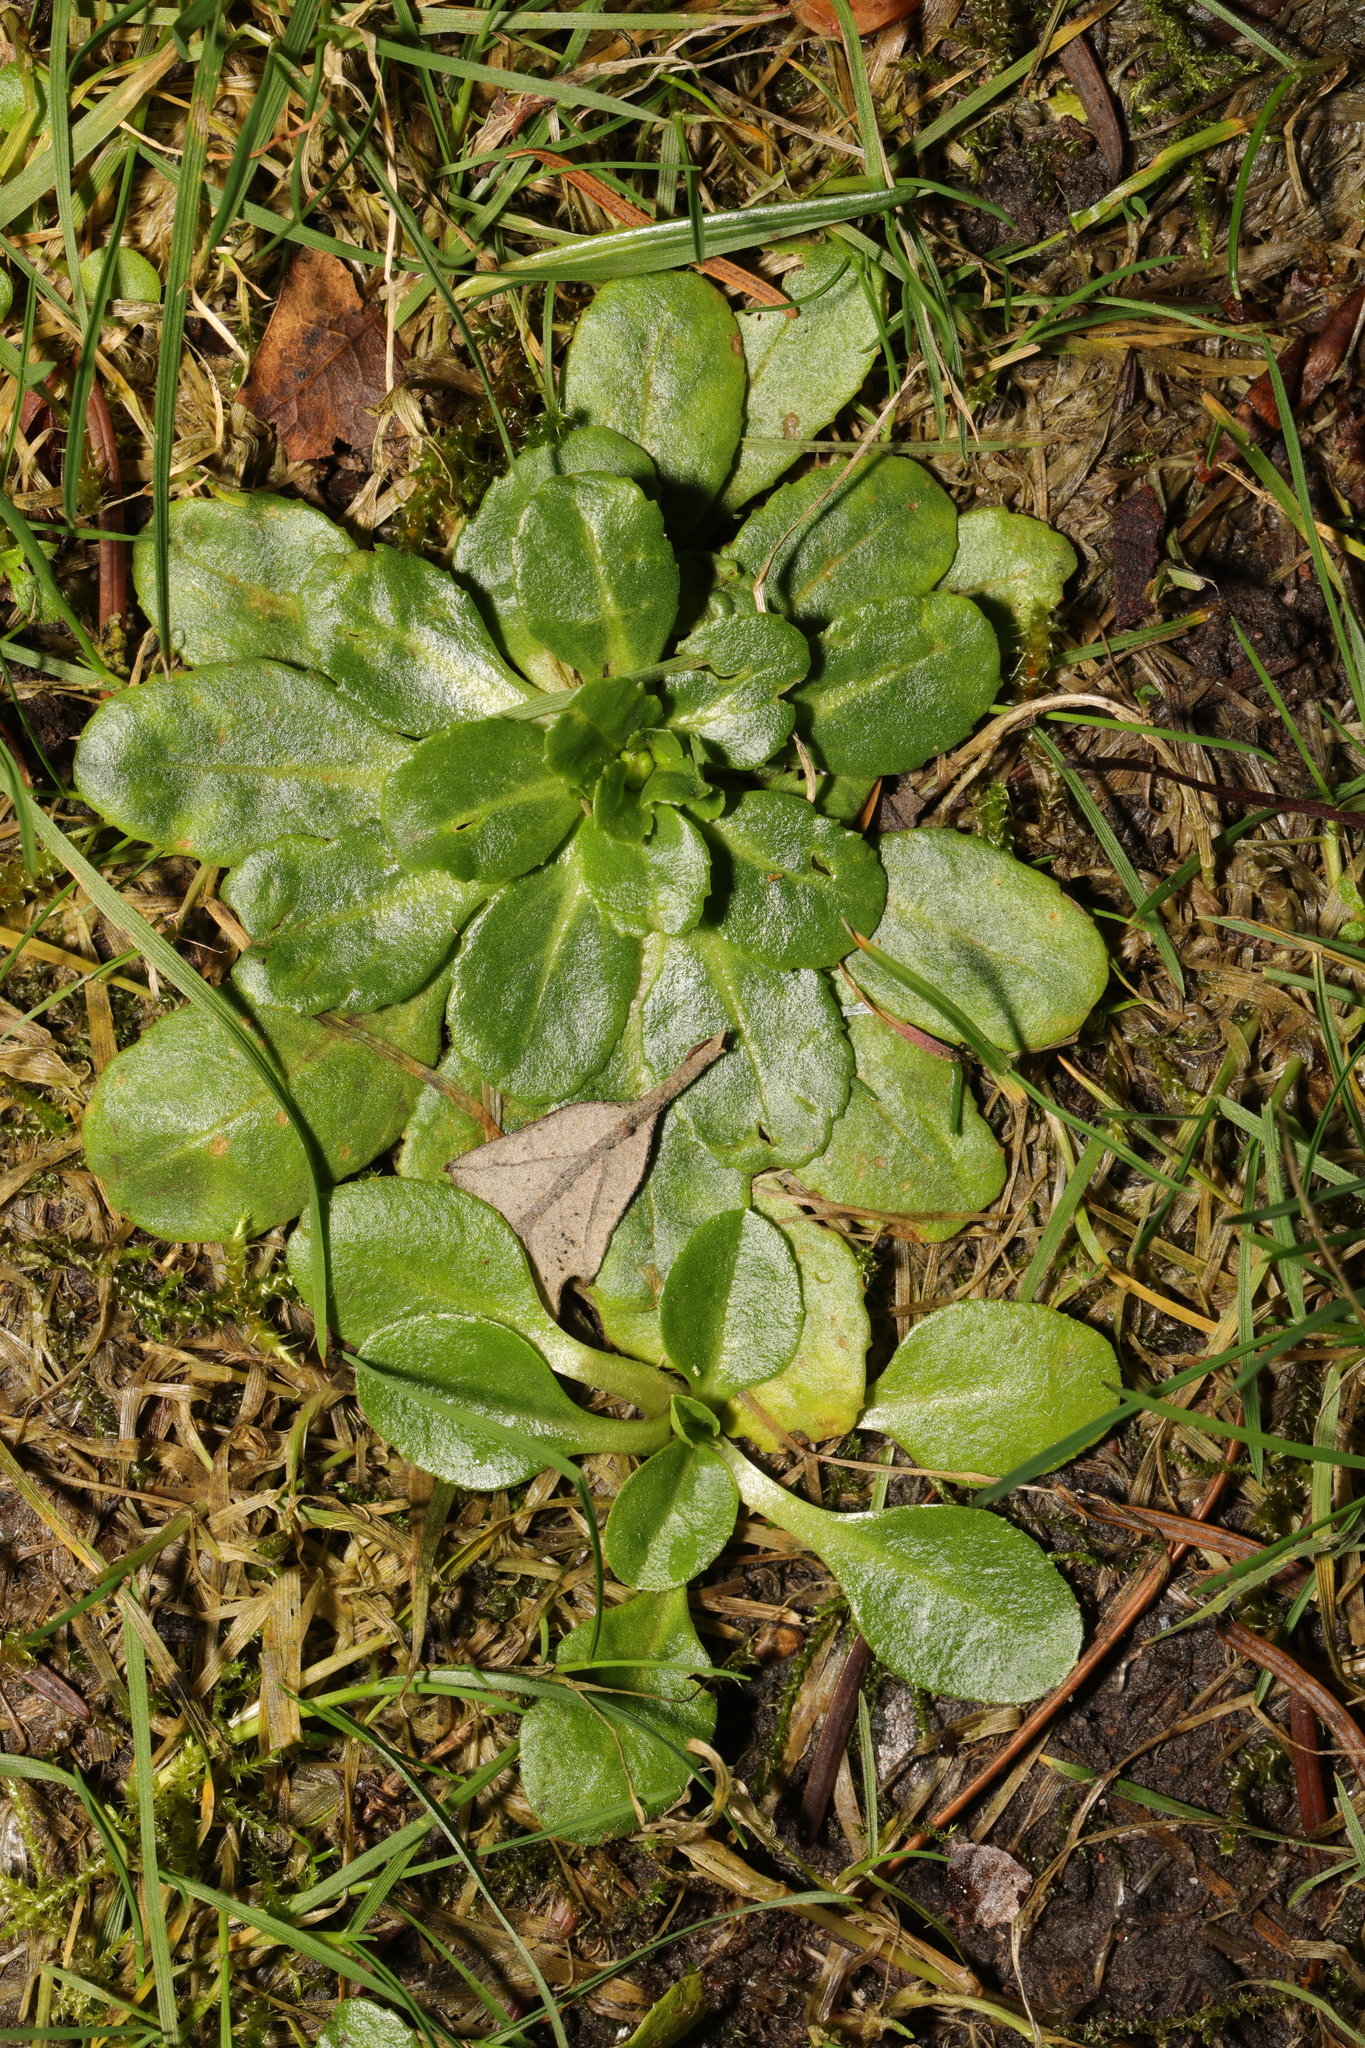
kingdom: Plantae
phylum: Tracheophyta
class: Magnoliopsida
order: Asterales
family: Asteraceae
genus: Bellis
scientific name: Bellis perennis
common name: Lawndaisy
